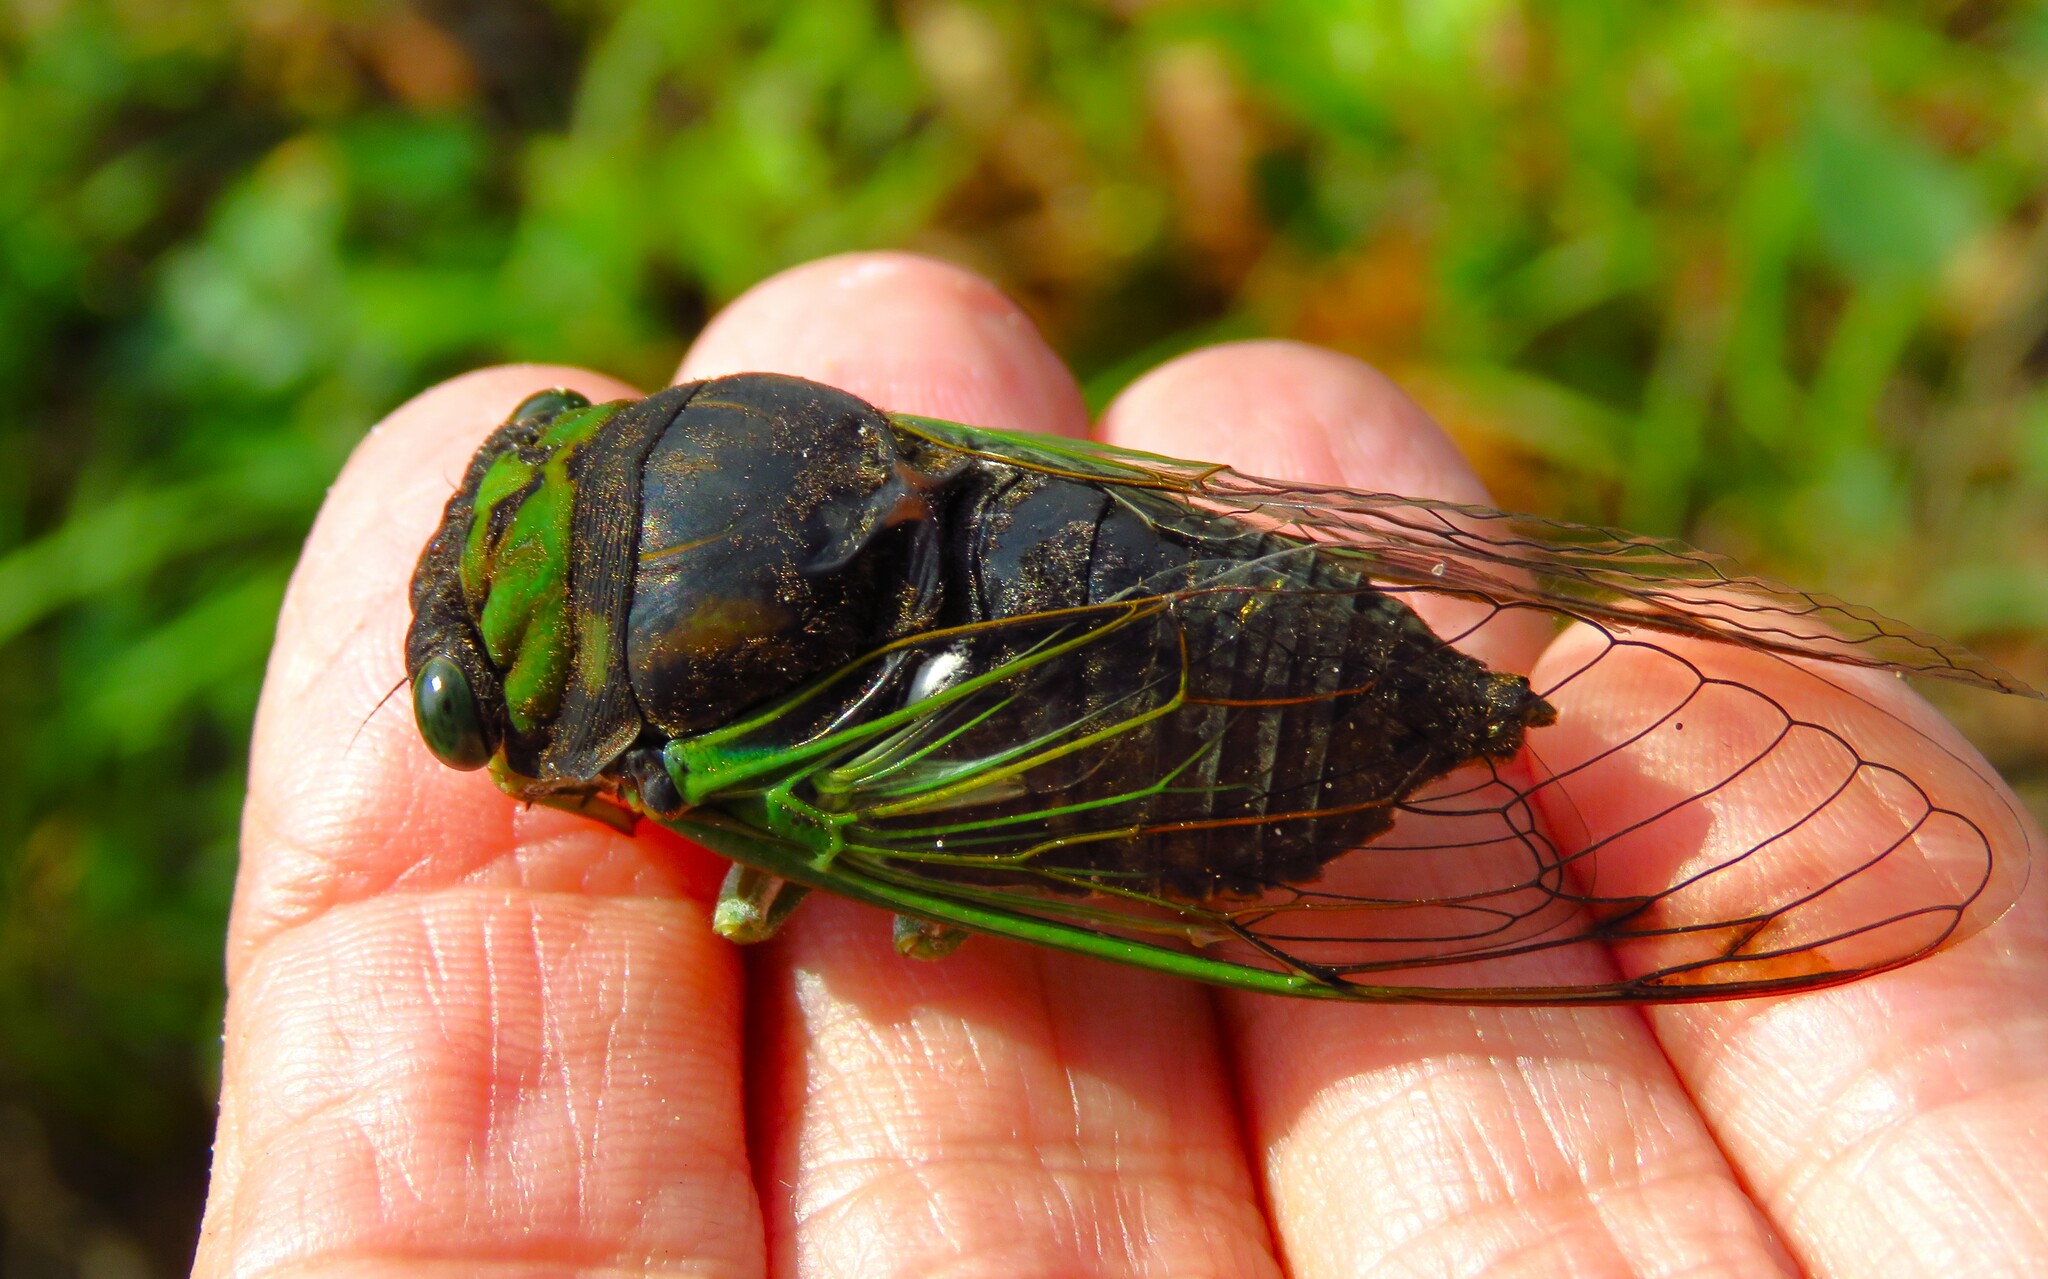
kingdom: Animalia
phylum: Arthropoda
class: Insecta
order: Hemiptera
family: Cicadidae
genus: Neotibicen
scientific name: Neotibicen tibicen
